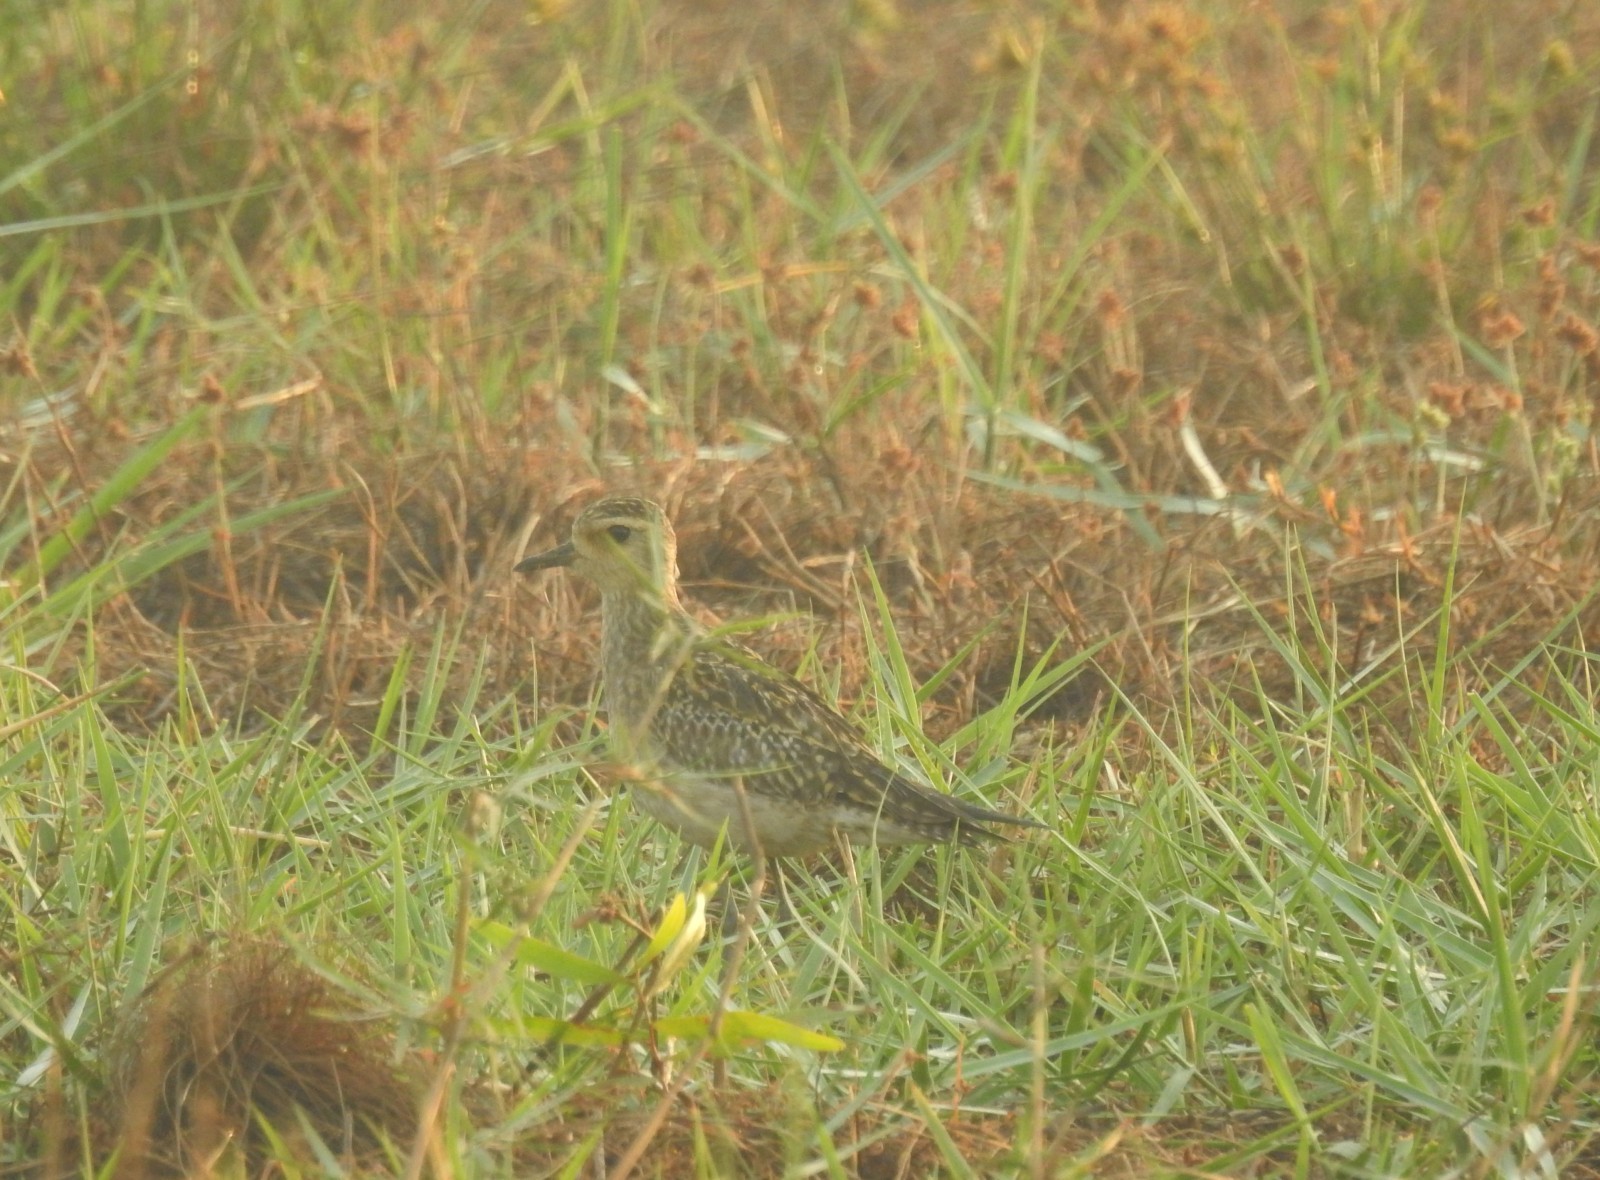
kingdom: Animalia
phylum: Chordata
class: Aves
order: Charadriiformes
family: Charadriidae
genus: Pluvialis
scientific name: Pluvialis fulva
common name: Pacific golden plover
